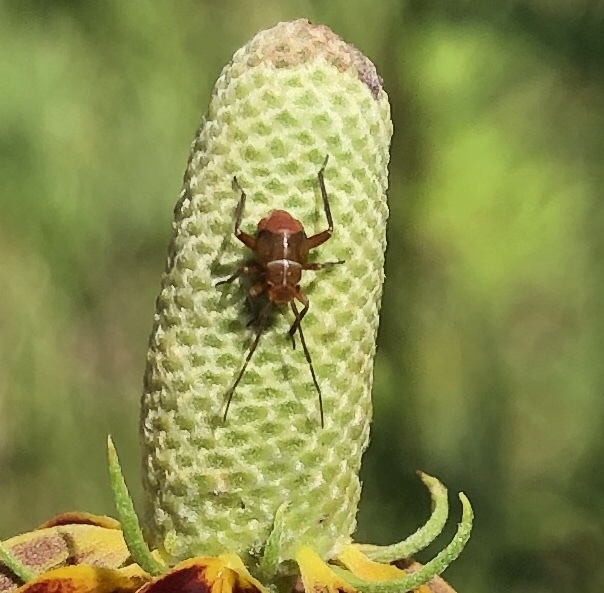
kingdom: Animalia
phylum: Arthropoda
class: Insecta
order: Hemiptera
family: Miridae
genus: Calocoris
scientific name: Calocoris barberi
